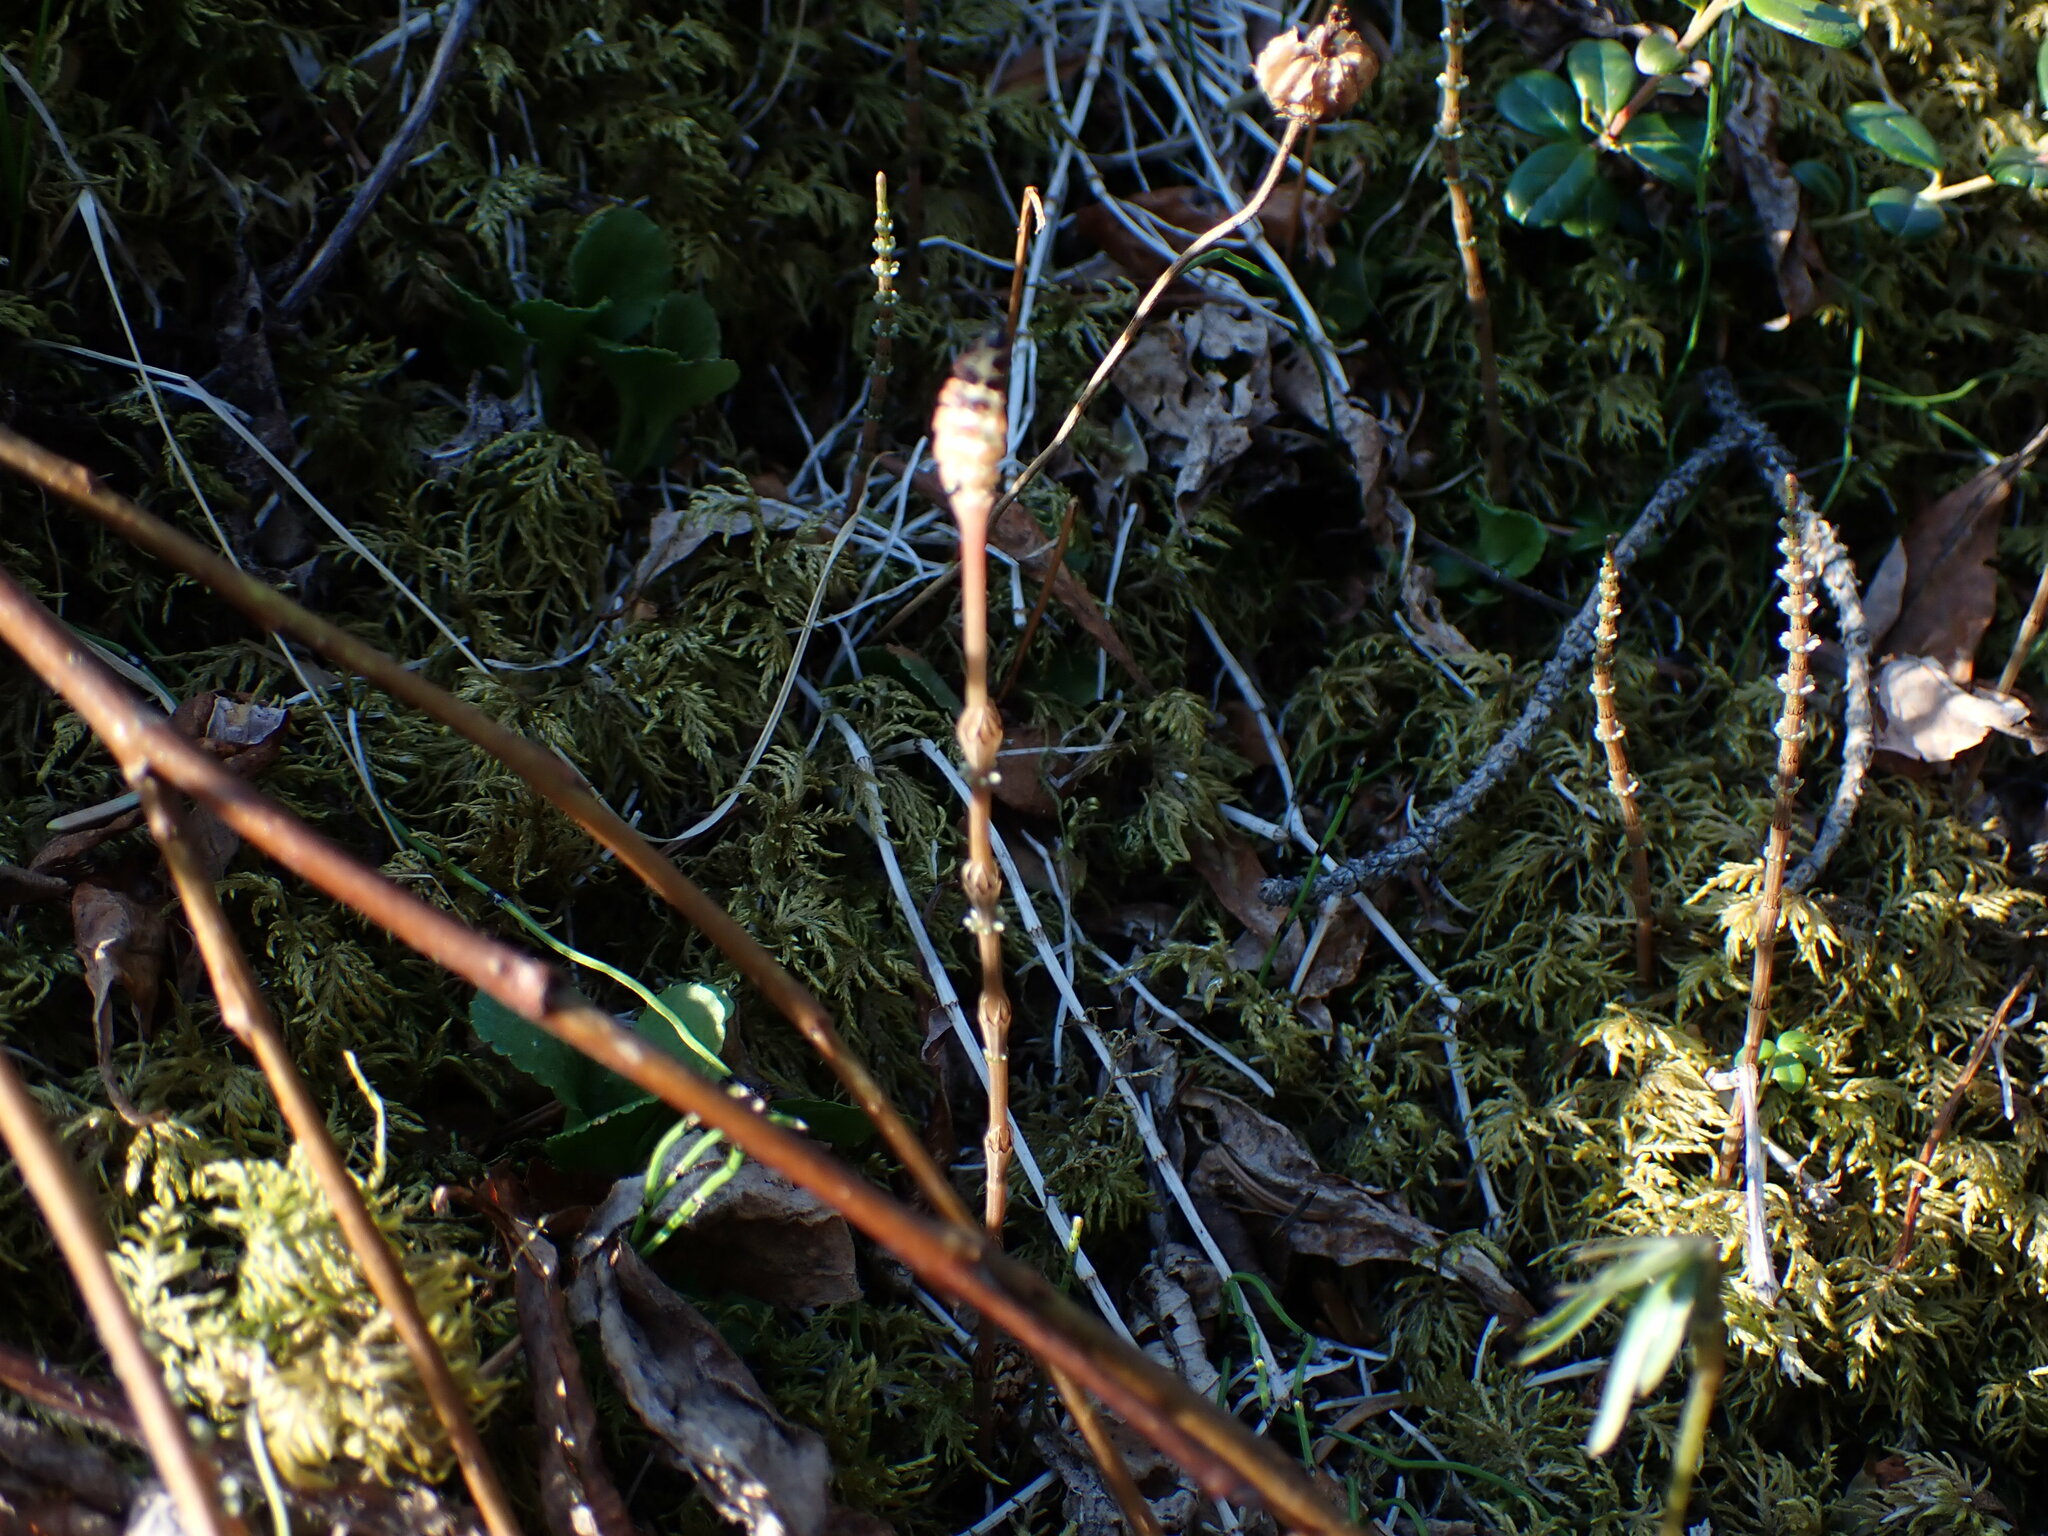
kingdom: Plantae
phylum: Tracheophyta
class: Polypodiopsida
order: Equisetales
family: Equisetaceae
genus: Equisetum
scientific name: Equisetum pratense
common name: Meadow horsetail
